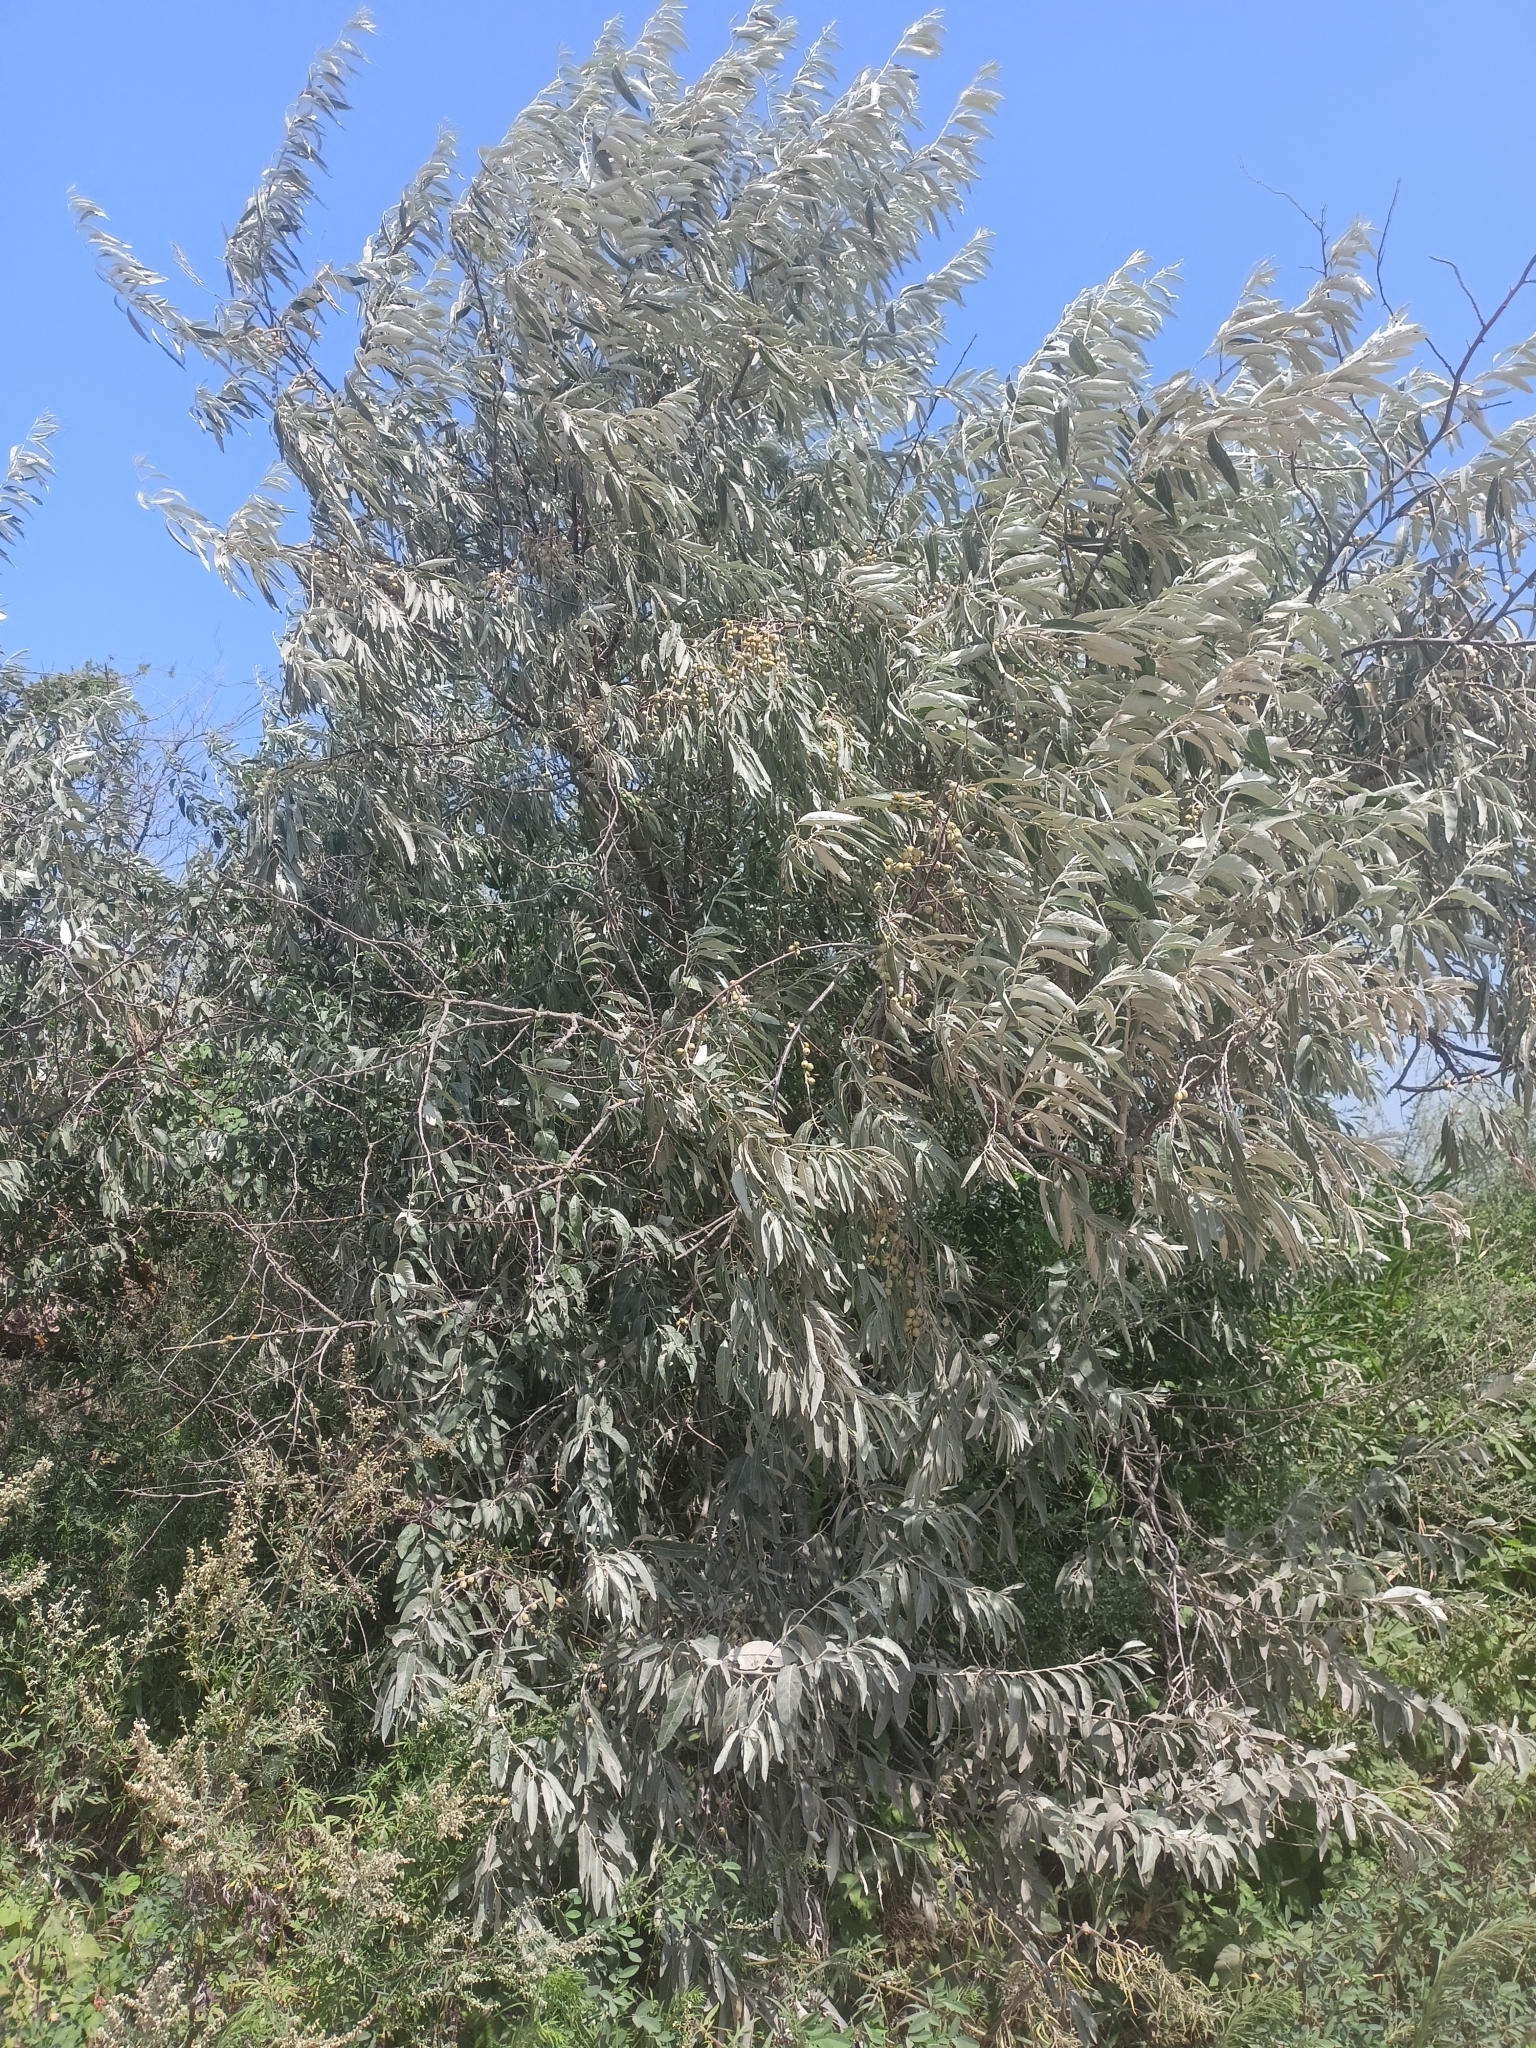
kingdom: Plantae
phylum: Tracheophyta
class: Magnoliopsida
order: Rosales
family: Elaeagnaceae
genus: Elaeagnus
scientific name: Elaeagnus angustifolia
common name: Russian olive
